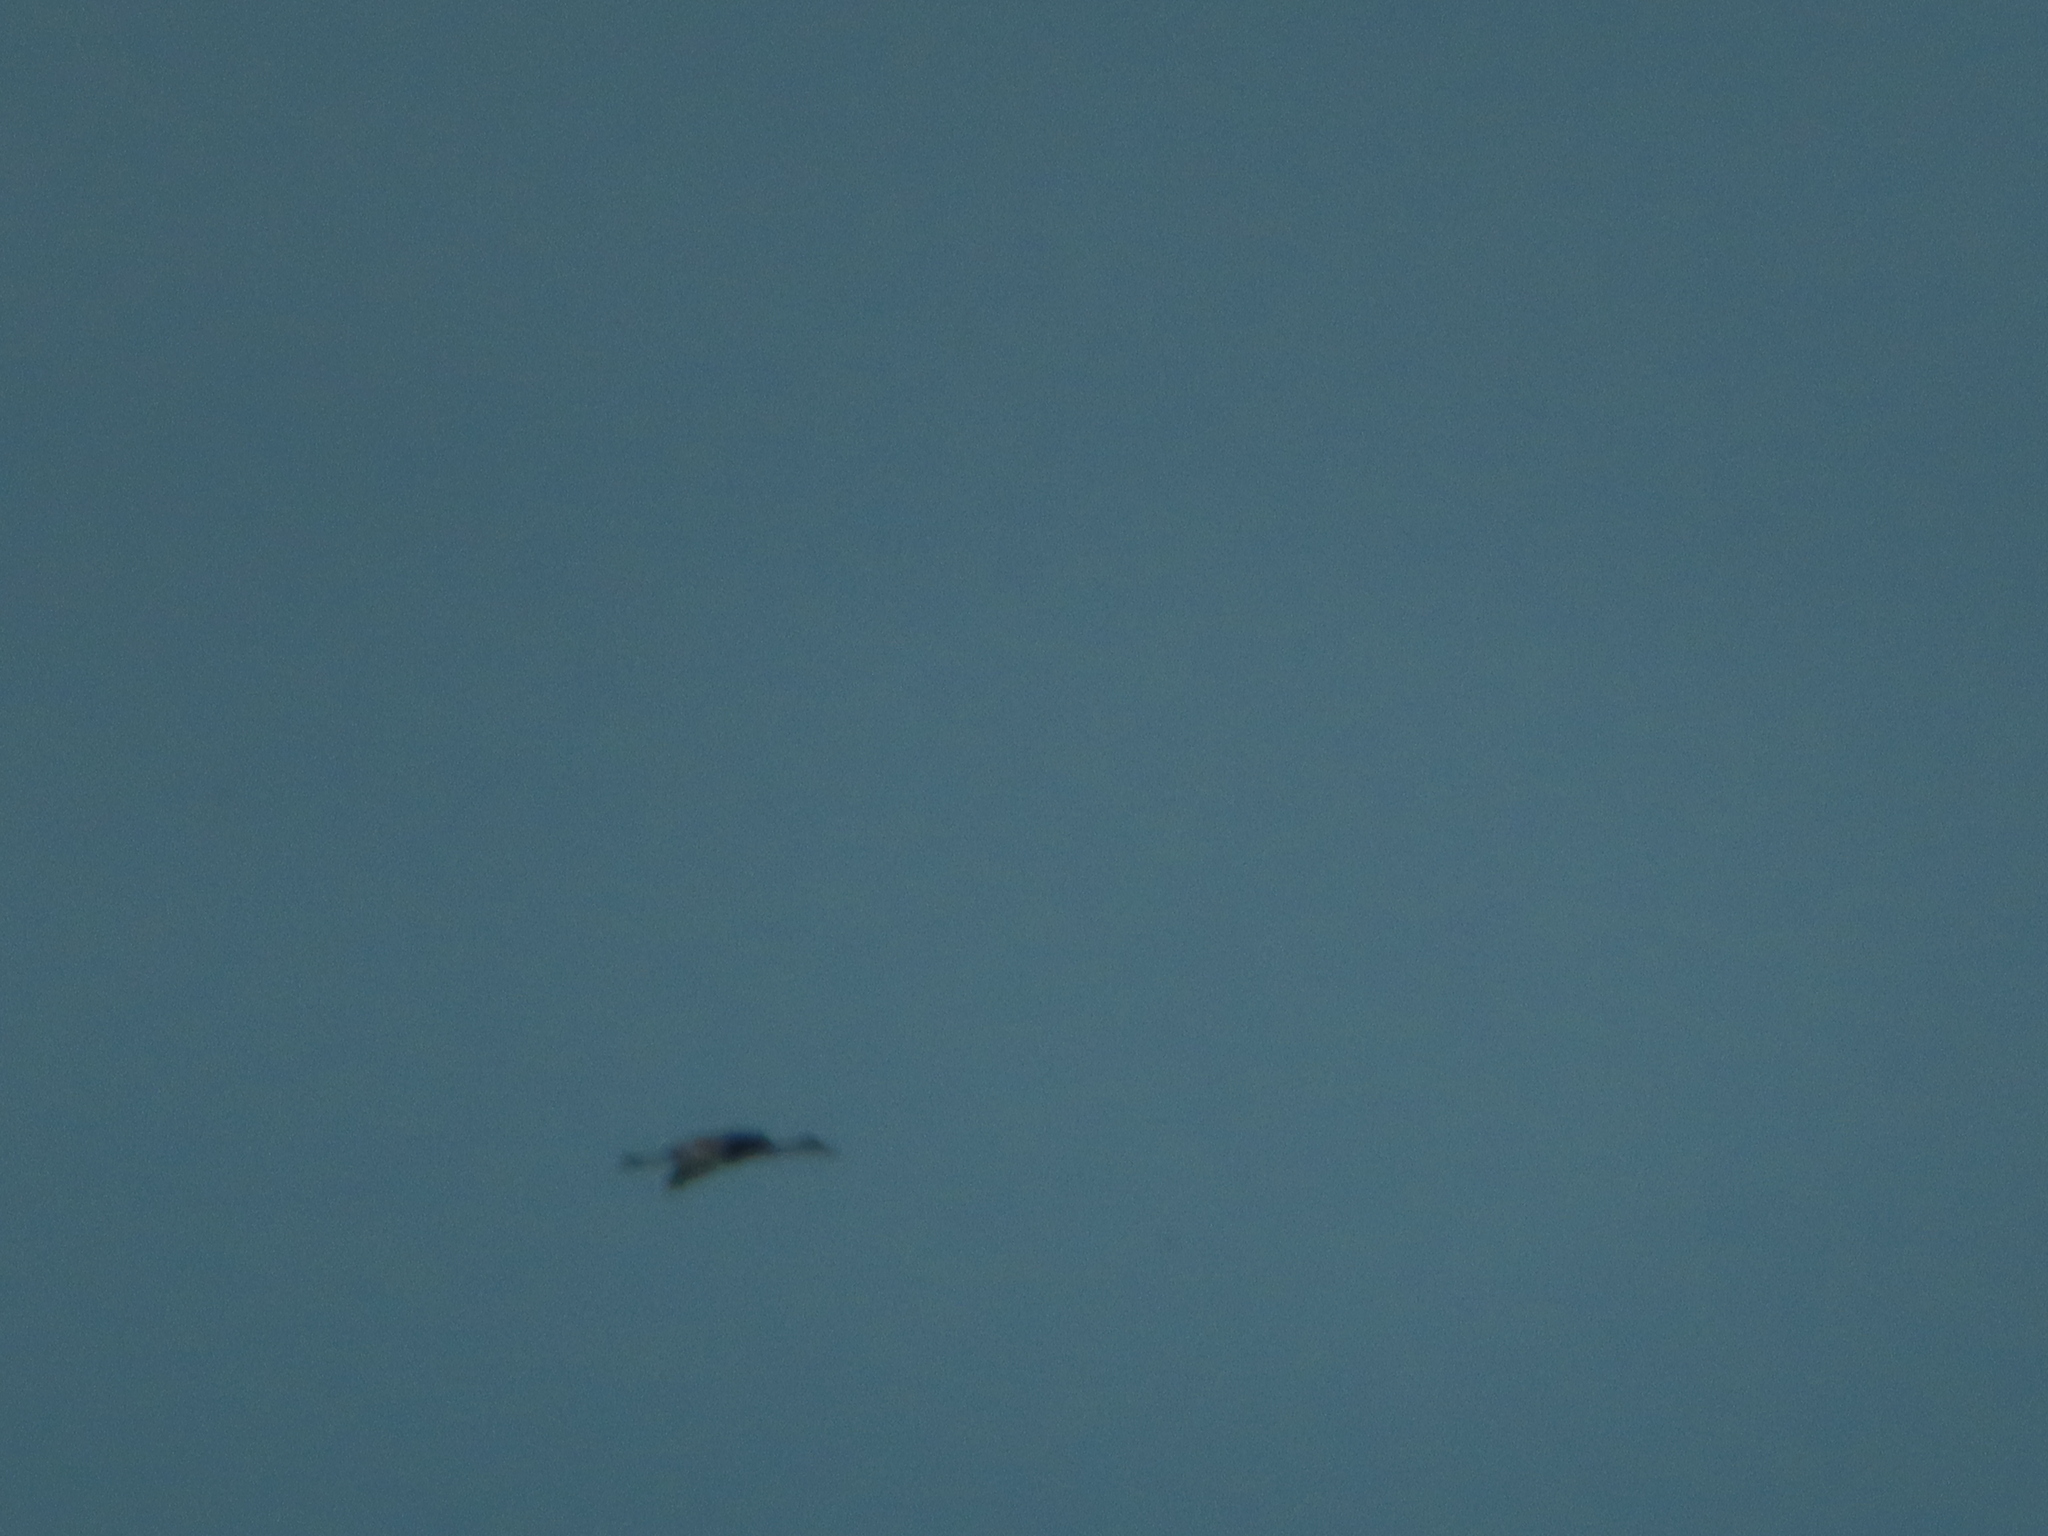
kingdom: Animalia
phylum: Chordata
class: Aves
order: Gruiformes
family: Gruidae
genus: Grus
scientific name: Grus canadensis
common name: Sandhill crane
